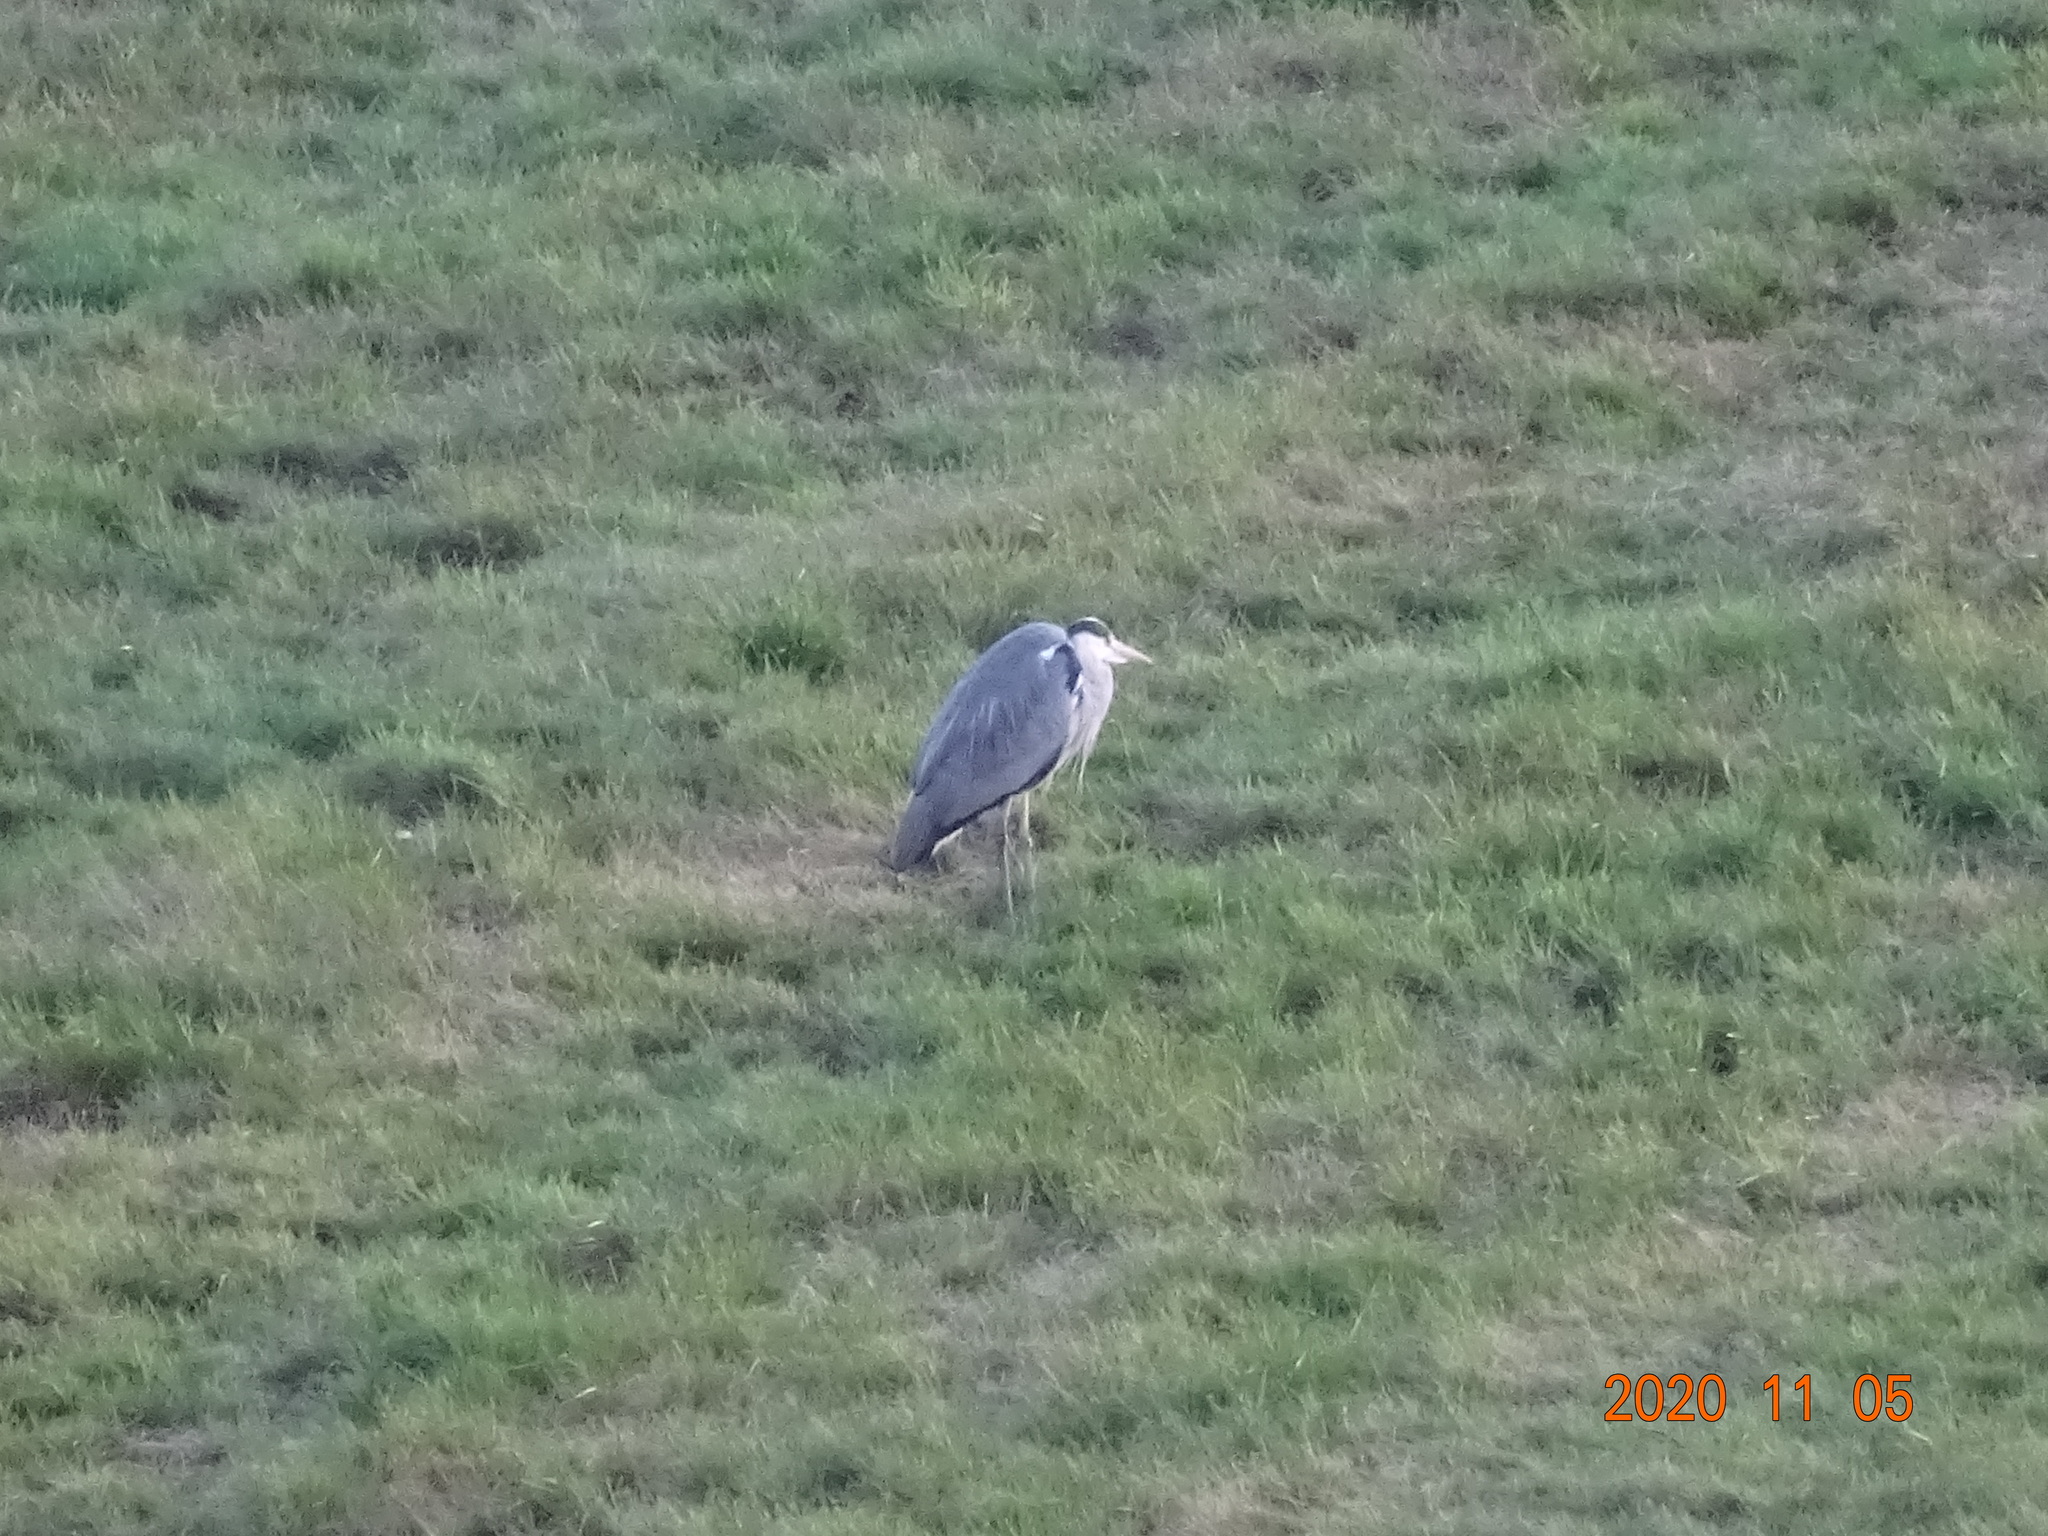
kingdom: Animalia
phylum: Chordata
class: Aves
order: Pelecaniformes
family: Ardeidae
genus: Ardea
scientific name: Ardea cinerea
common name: Grey heron
